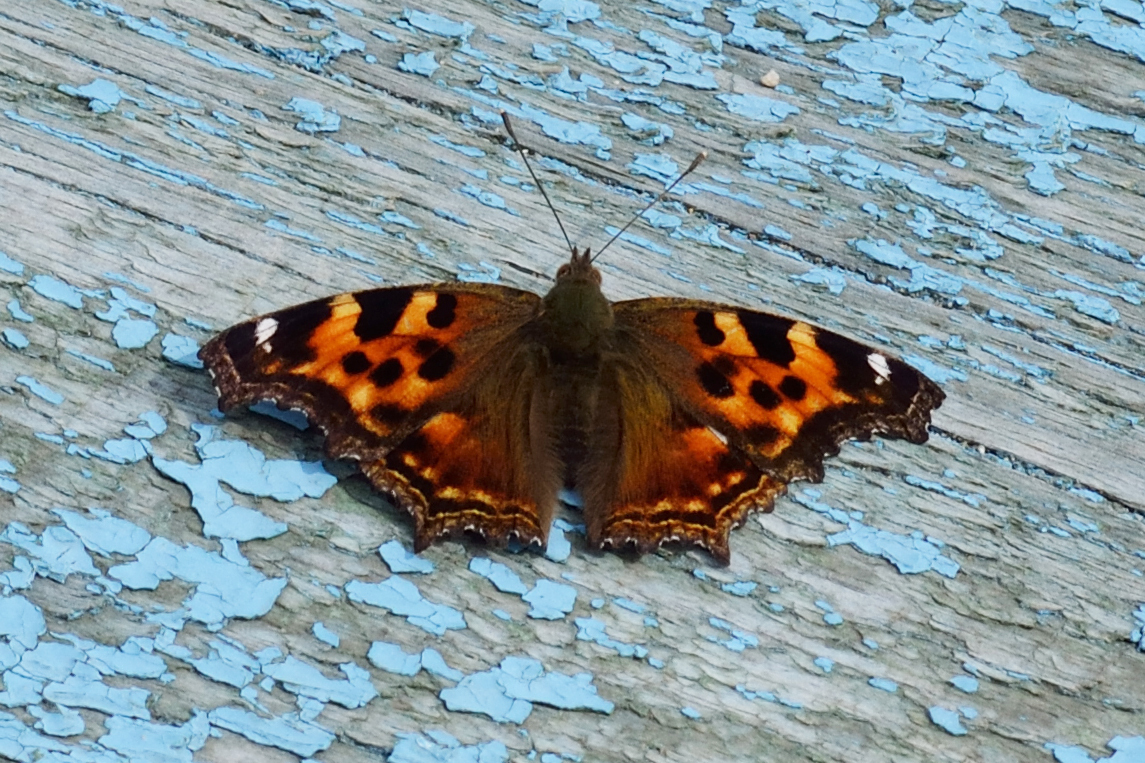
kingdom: Animalia
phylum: Arthropoda
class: Insecta
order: Lepidoptera
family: Nymphalidae
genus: Polygonia
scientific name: Polygonia vaualbum
